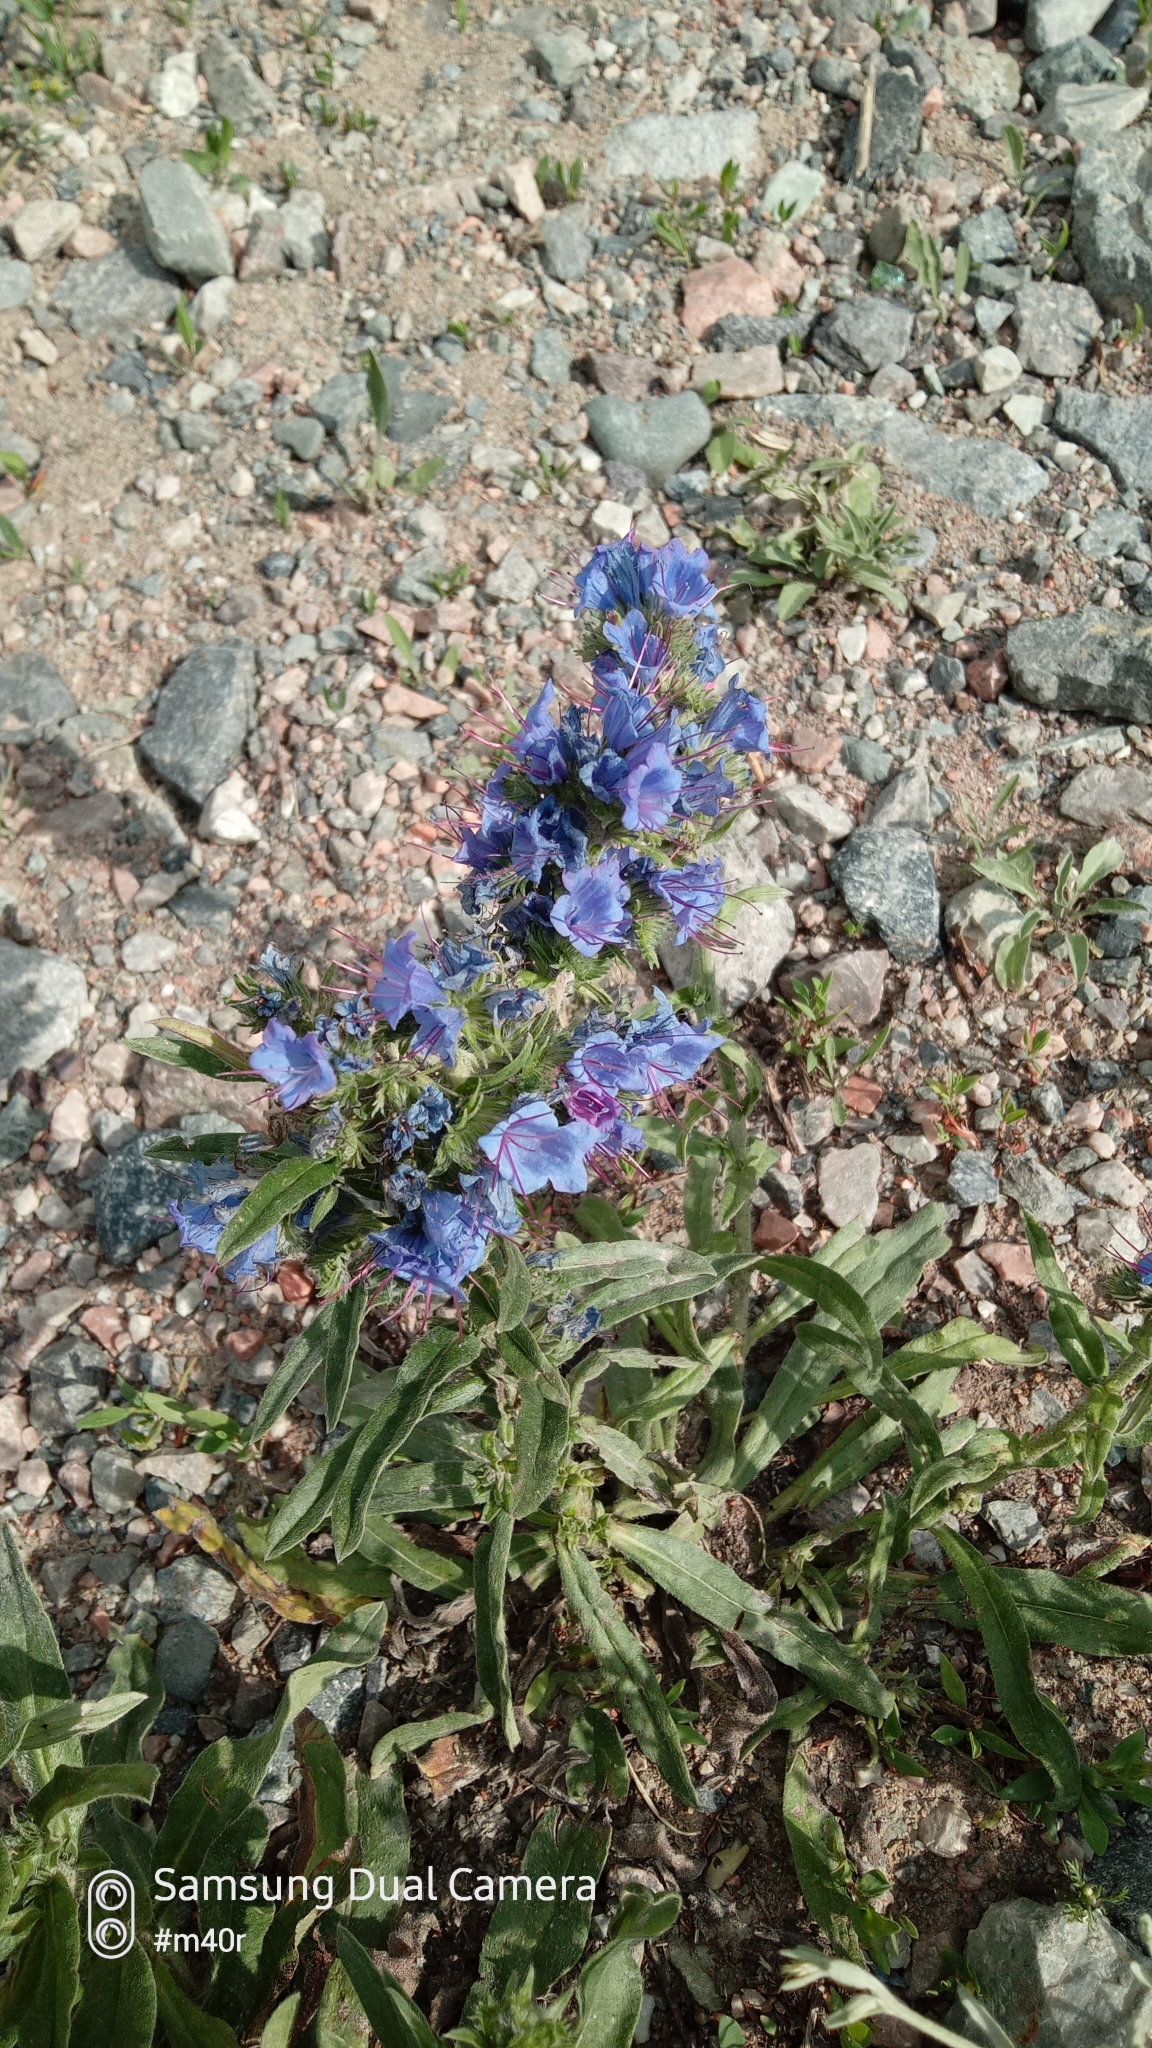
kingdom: Plantae
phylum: Tracheophyta
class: Magnoliopsida
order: Boraginales
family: Boraginaceae
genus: Echium
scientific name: Echium vulgare
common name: Common viper's bugloss
